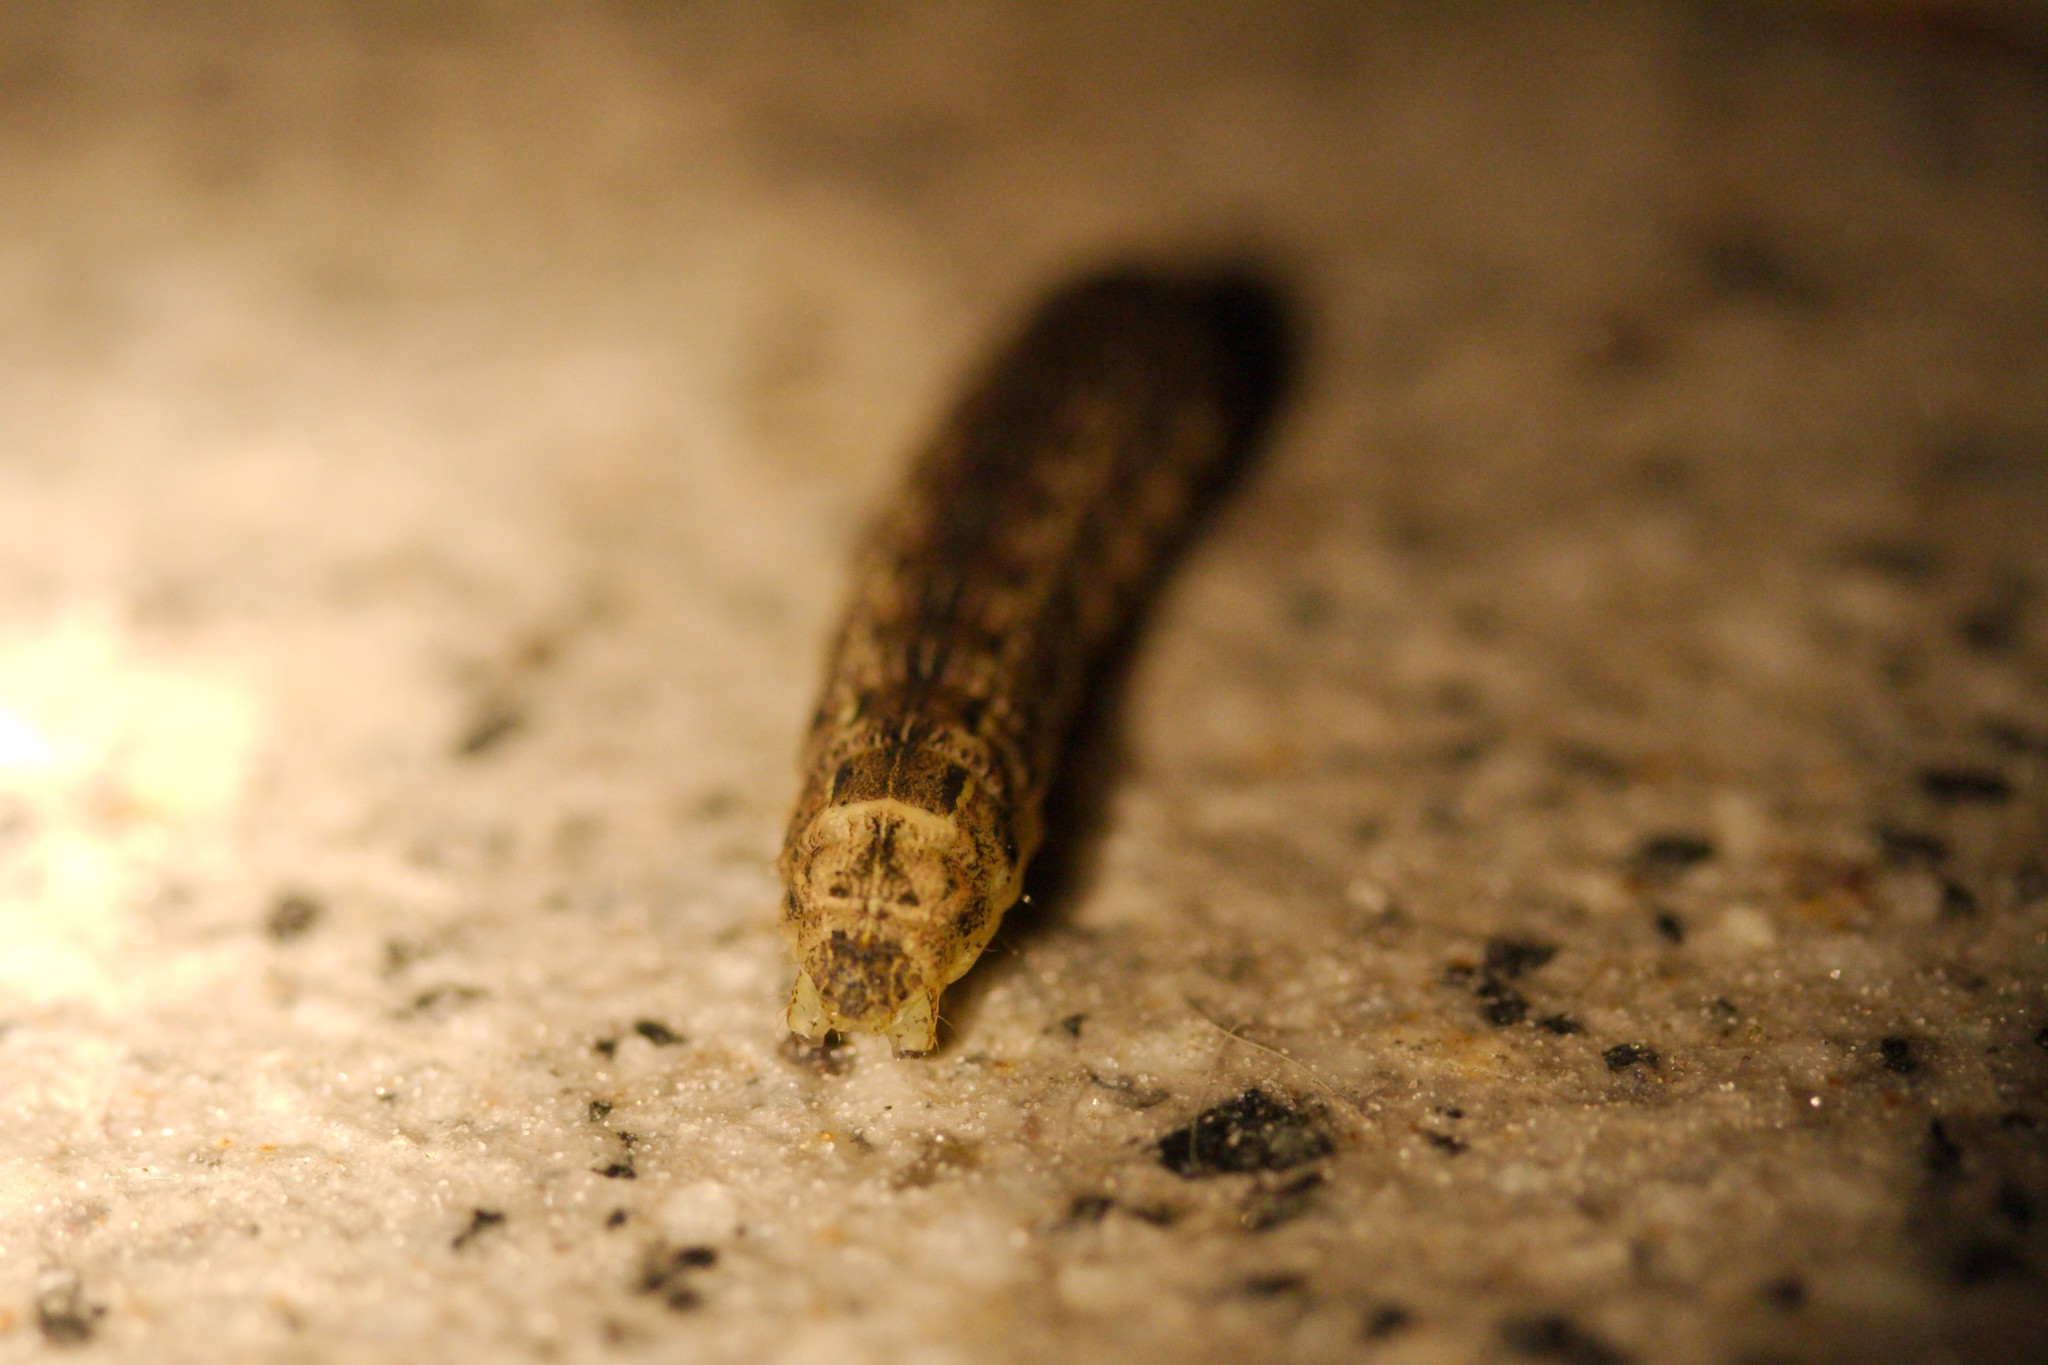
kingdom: Animalia
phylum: Arthropoda
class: Insecta
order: Lepidoptera
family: Noctuidae
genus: Noctua
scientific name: Noctua pronuba
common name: Large yellow underwing
